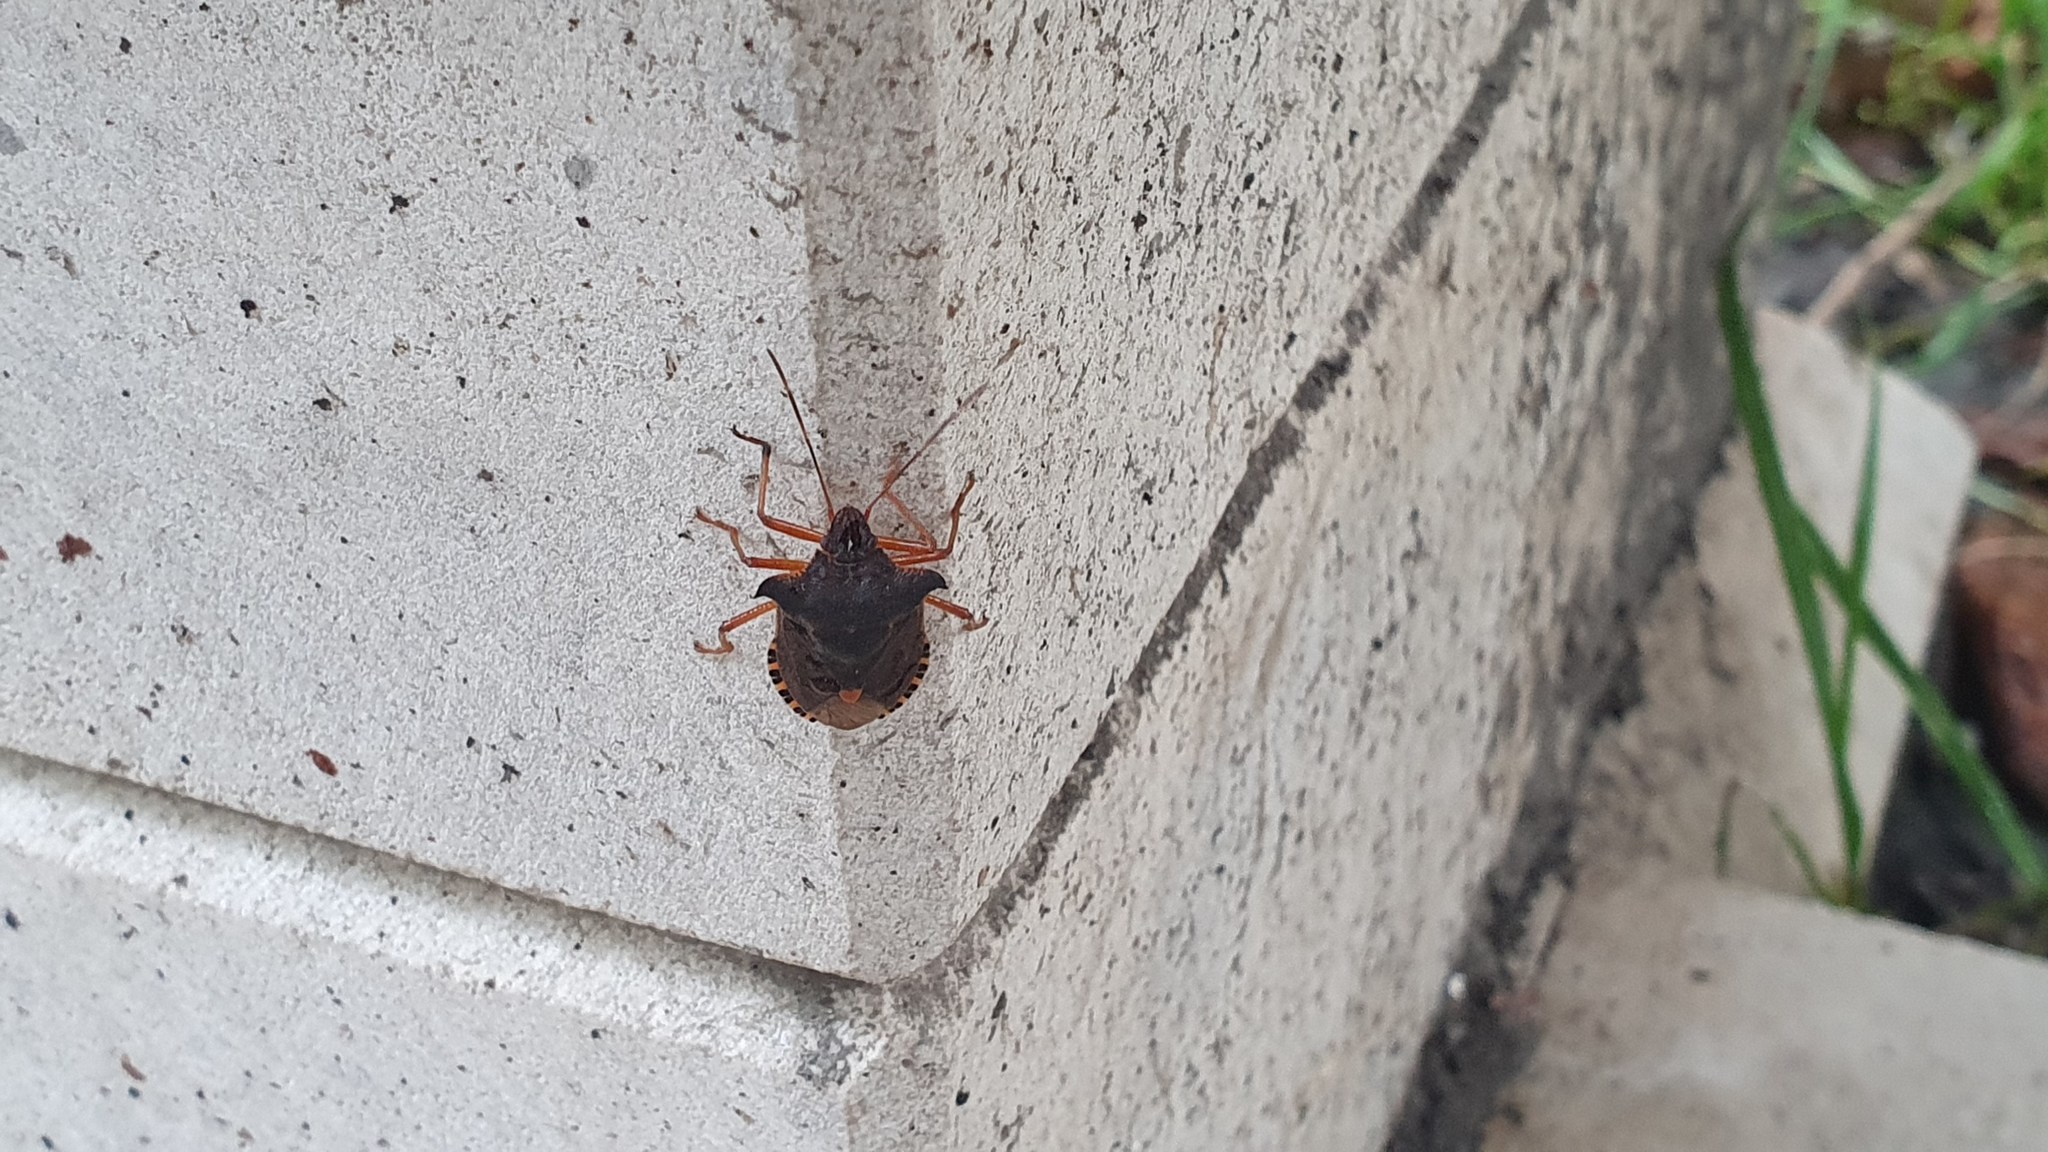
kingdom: Animalia
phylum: Arthropoda
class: Insecta
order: Hemiptera
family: Pentatomidae
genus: Pentatoma
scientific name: Pentatoma rufipes
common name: Forest bug
